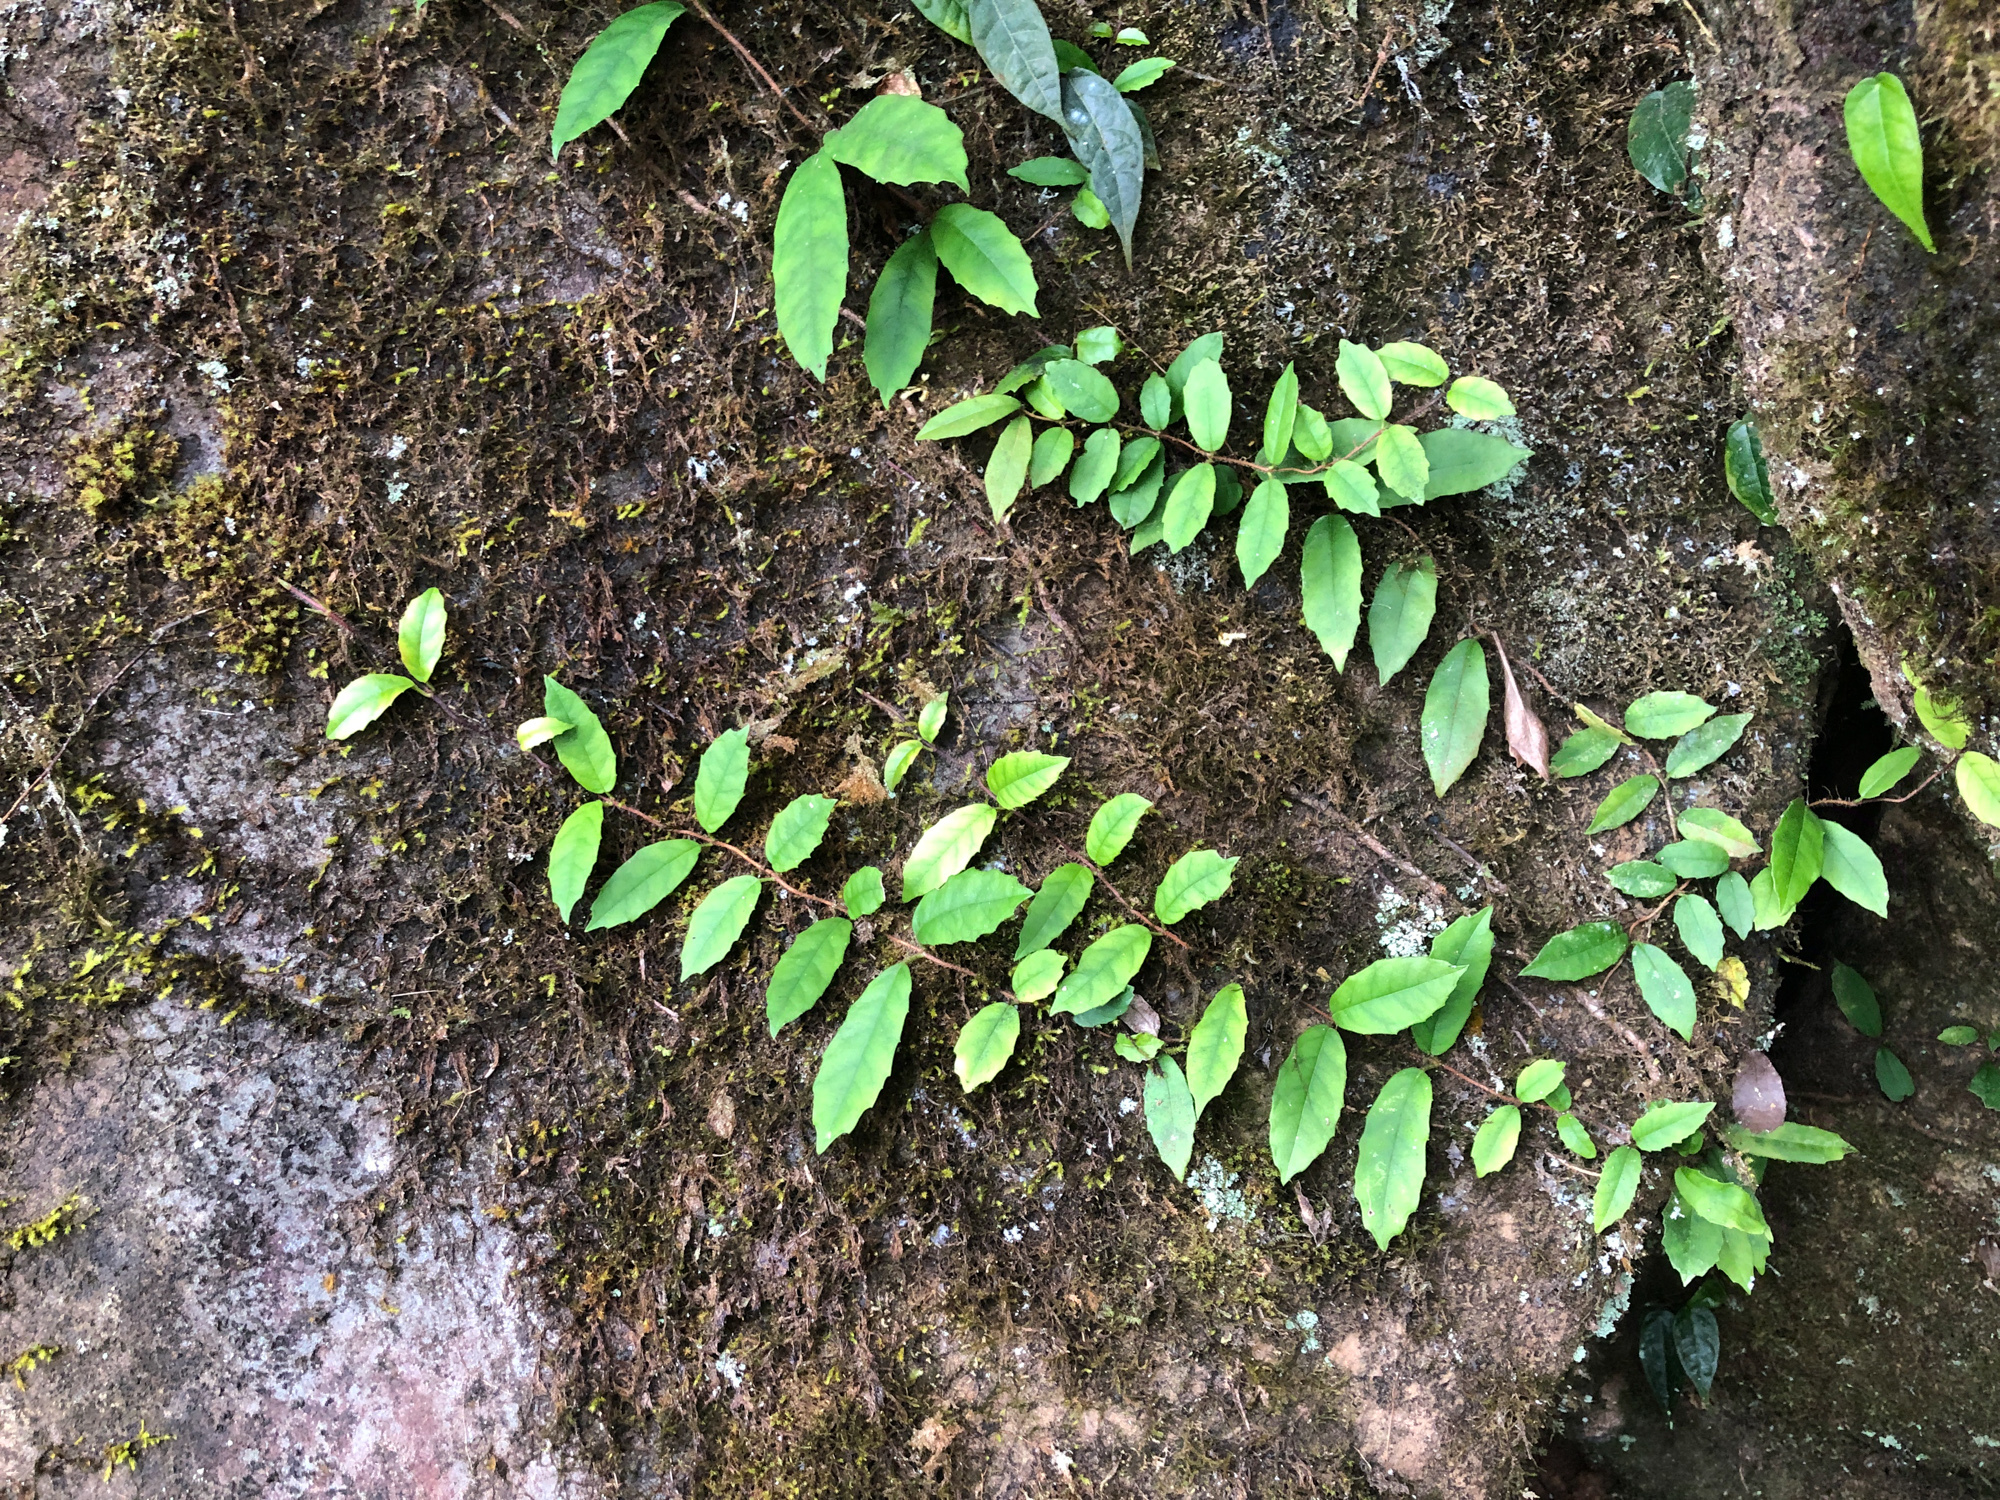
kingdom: Plantae
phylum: Tracheophyta
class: Magnoliopsida
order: Cornales
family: Hydrangeaceae
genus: Hydrangea
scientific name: Hydrangea integrifolia
